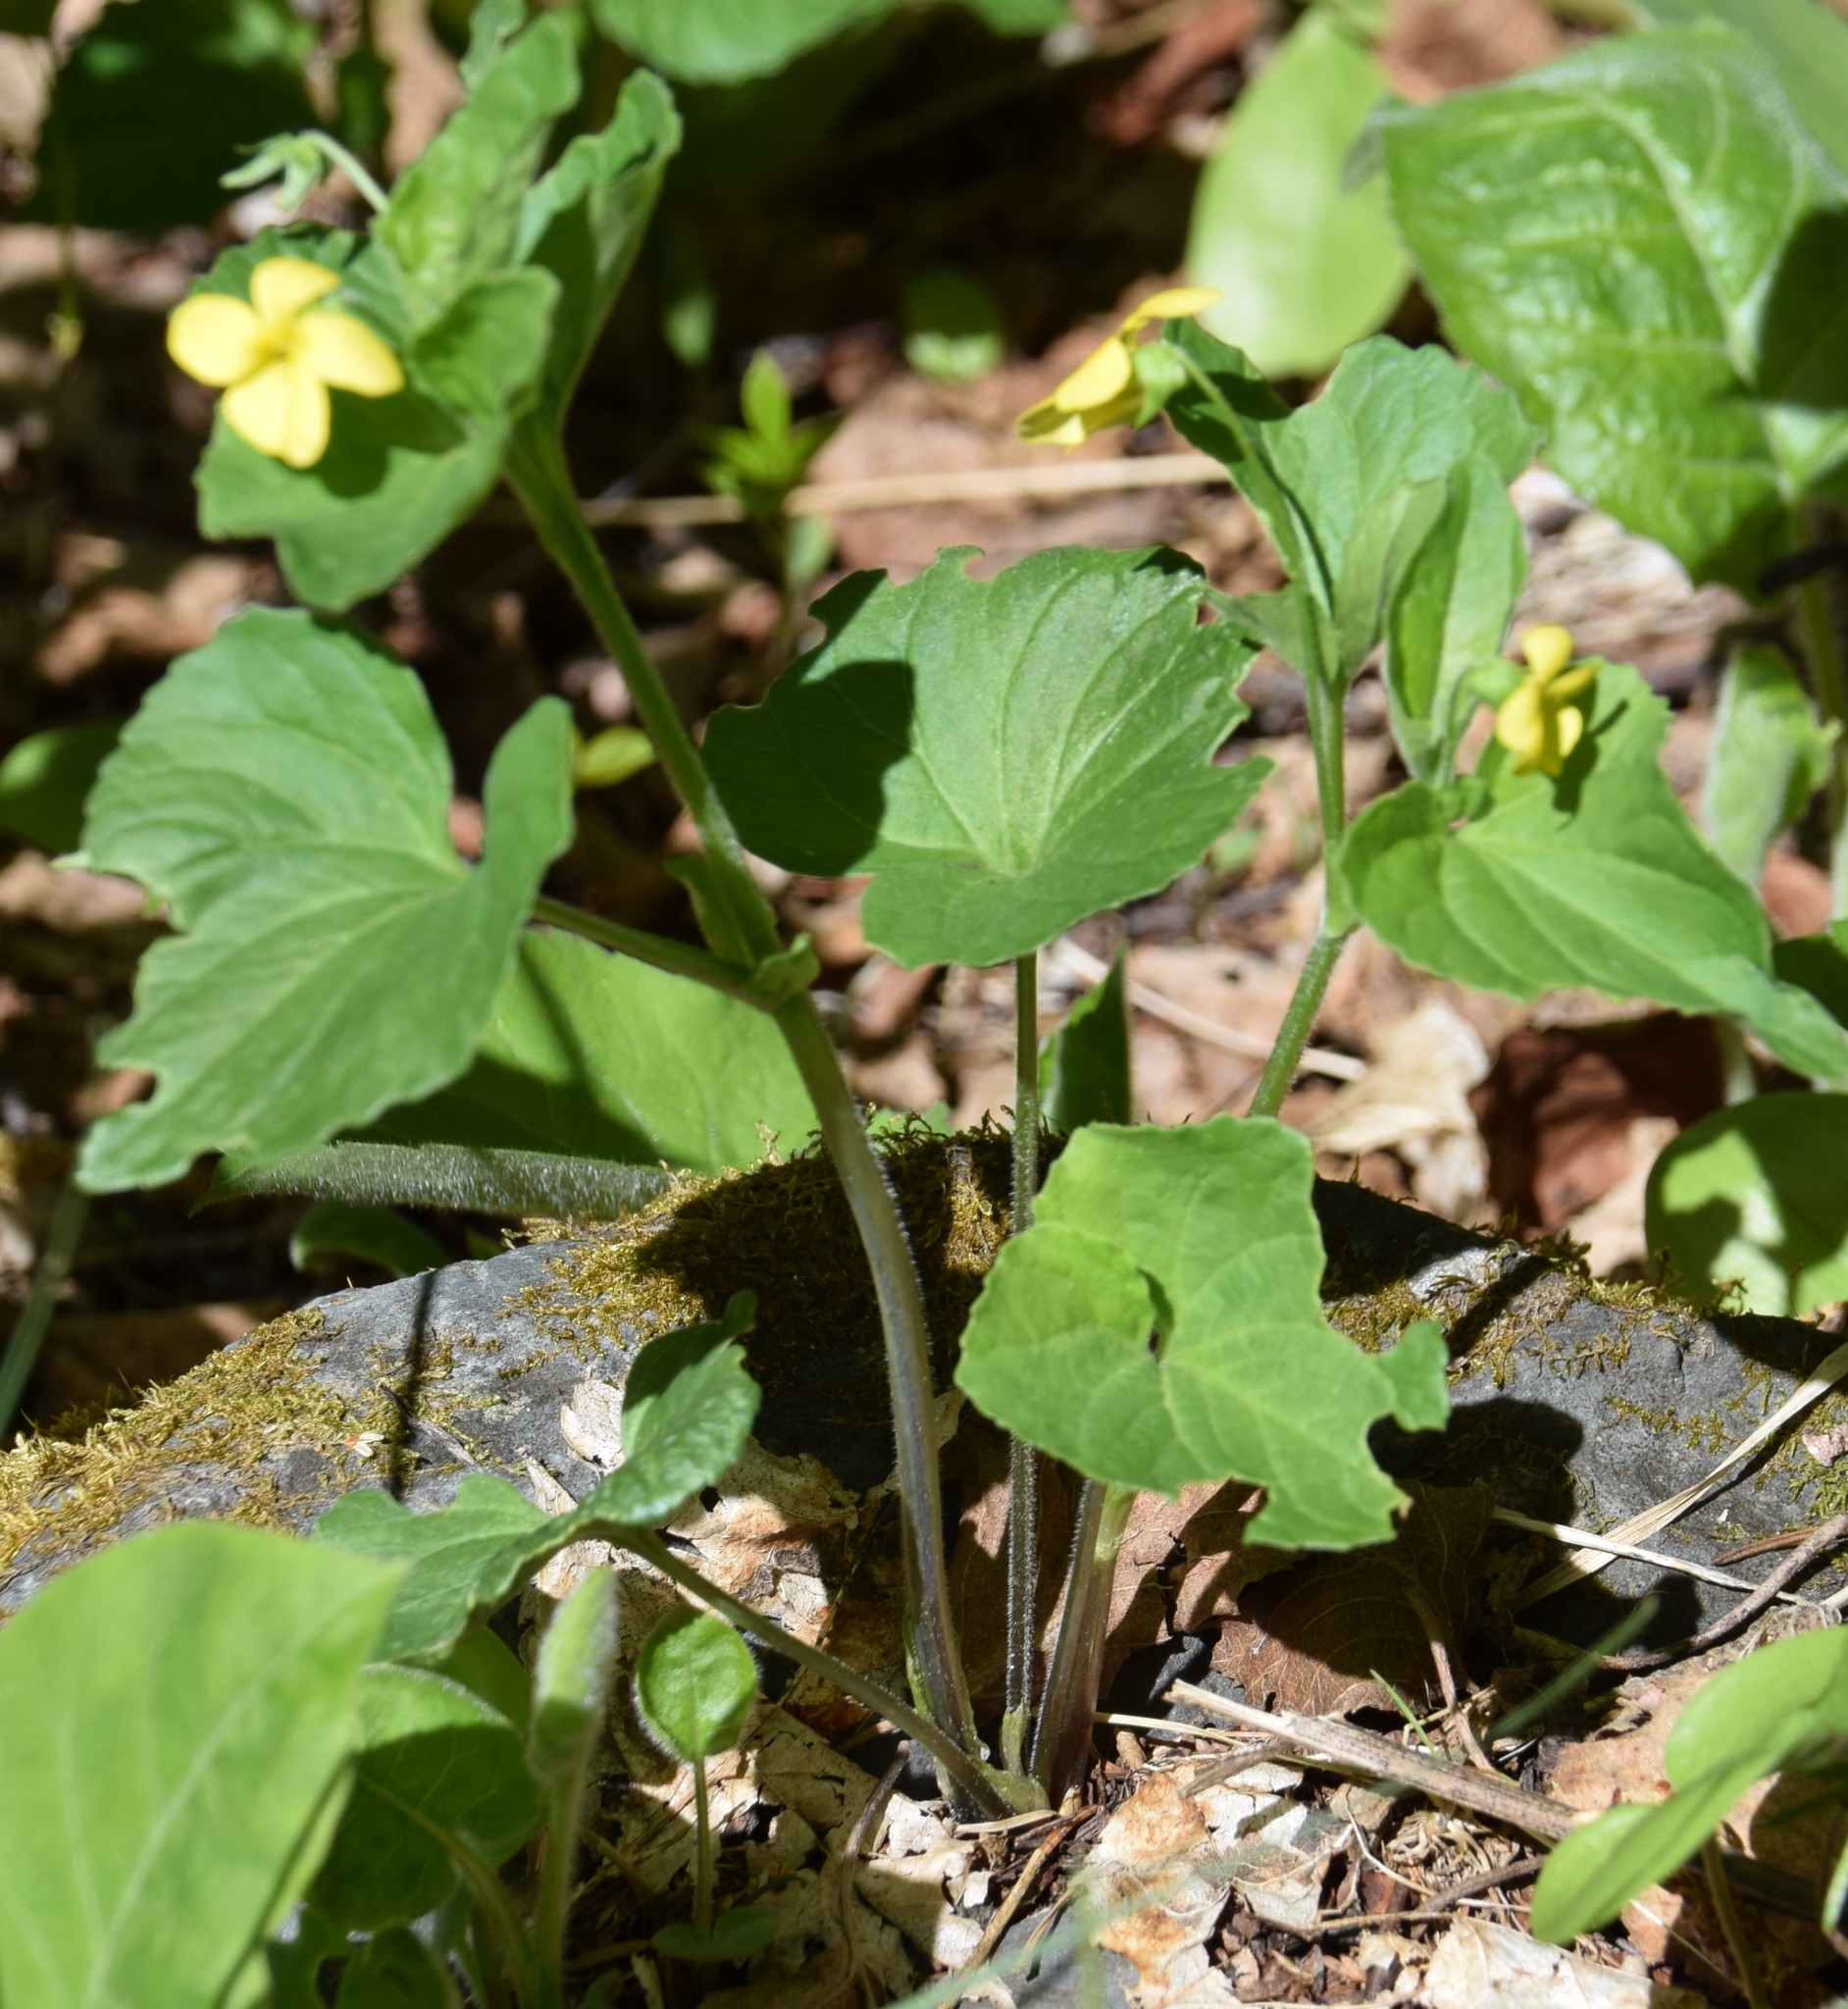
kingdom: Plantae
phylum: Tracheophyta
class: Magnoliopsida
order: Malpighiales
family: Violaceae
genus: Viola
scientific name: Viola eriocarpa
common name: Smooth yellow violet
